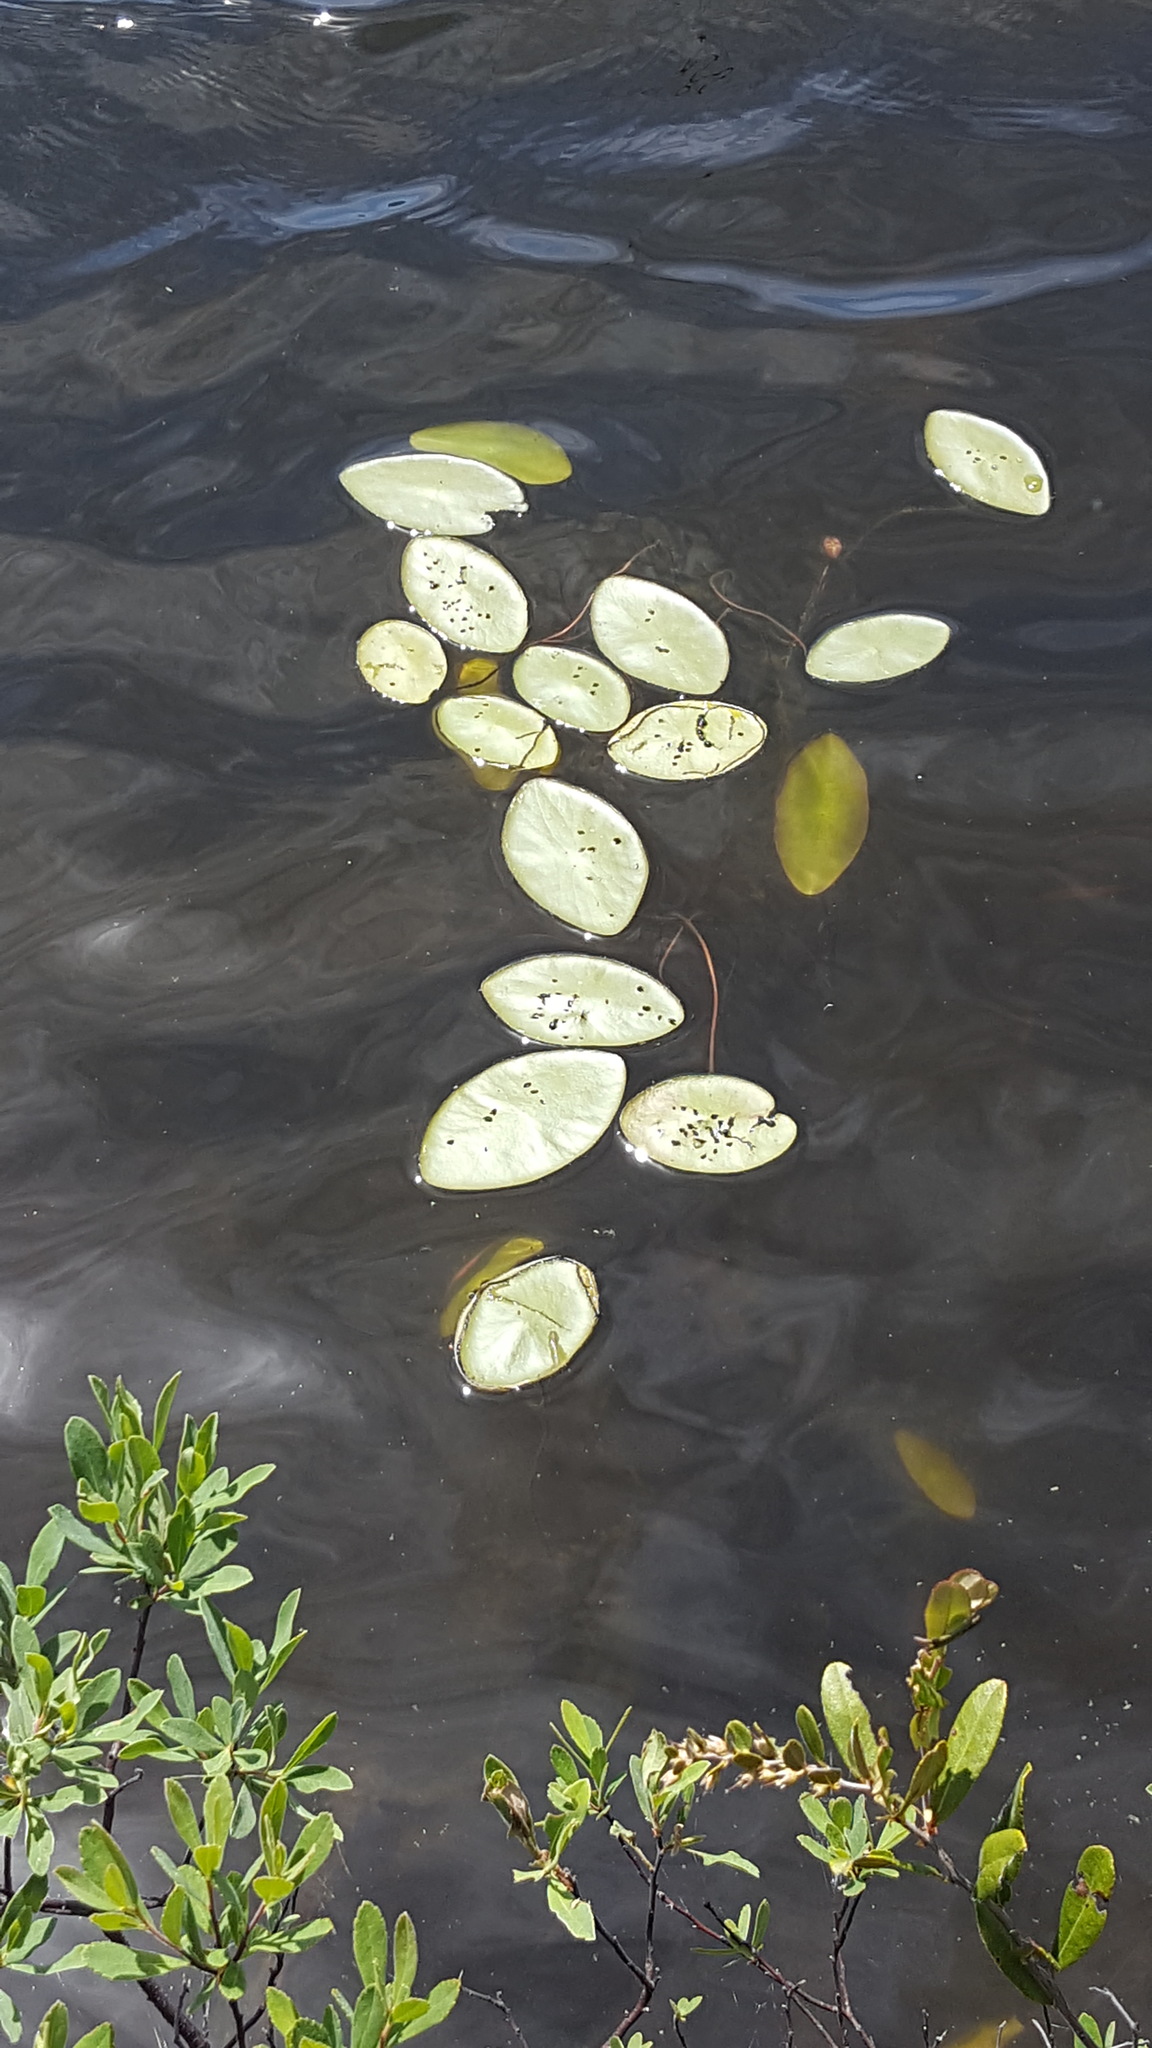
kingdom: Plantae
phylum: Tracheophyta
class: Magnoliopsida
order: Nymphaeales
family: Cabombaceae
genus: Brasenia
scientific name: Brasenia schreberi
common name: Water-shield
